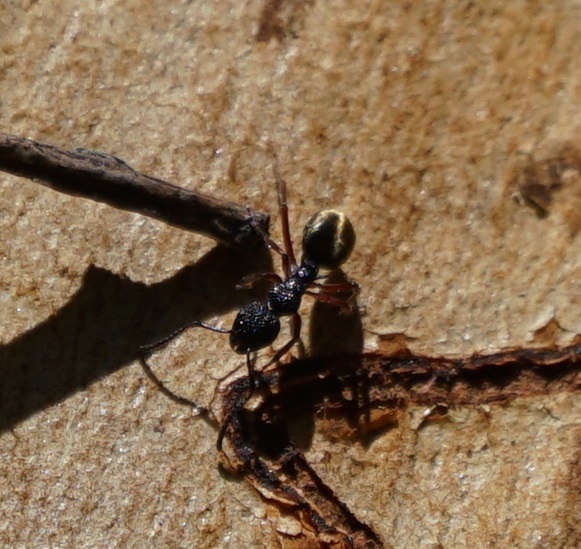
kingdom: Animalia
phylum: Arthropoda
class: Insecta
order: Hymenoptera
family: Formicidae
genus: Dolichoderus
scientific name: Dolichoderus scabridus
